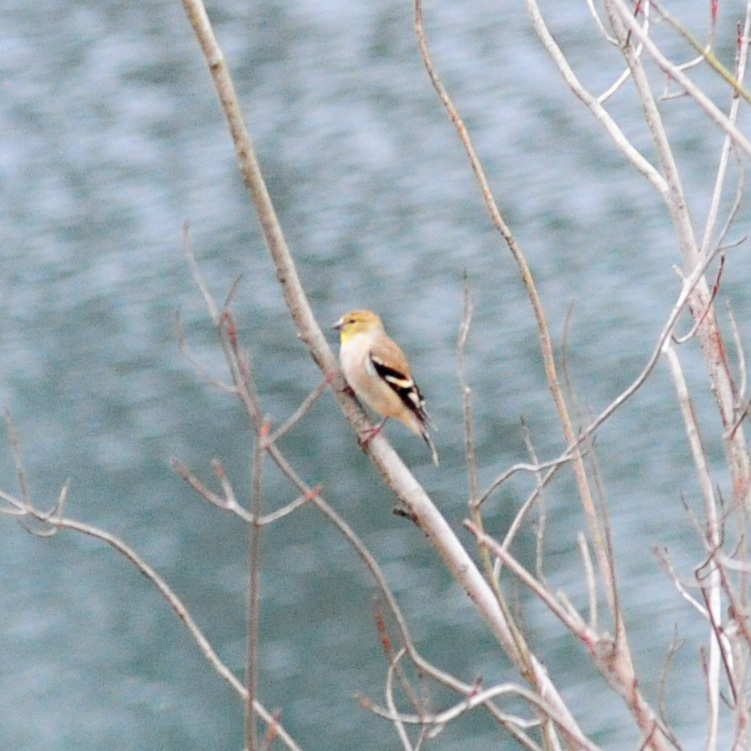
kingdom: Animalia
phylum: Chordata
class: Aves
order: Passeriformes
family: Fringillidae
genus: Spinus
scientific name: Spinus tristis
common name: American goldfinch
